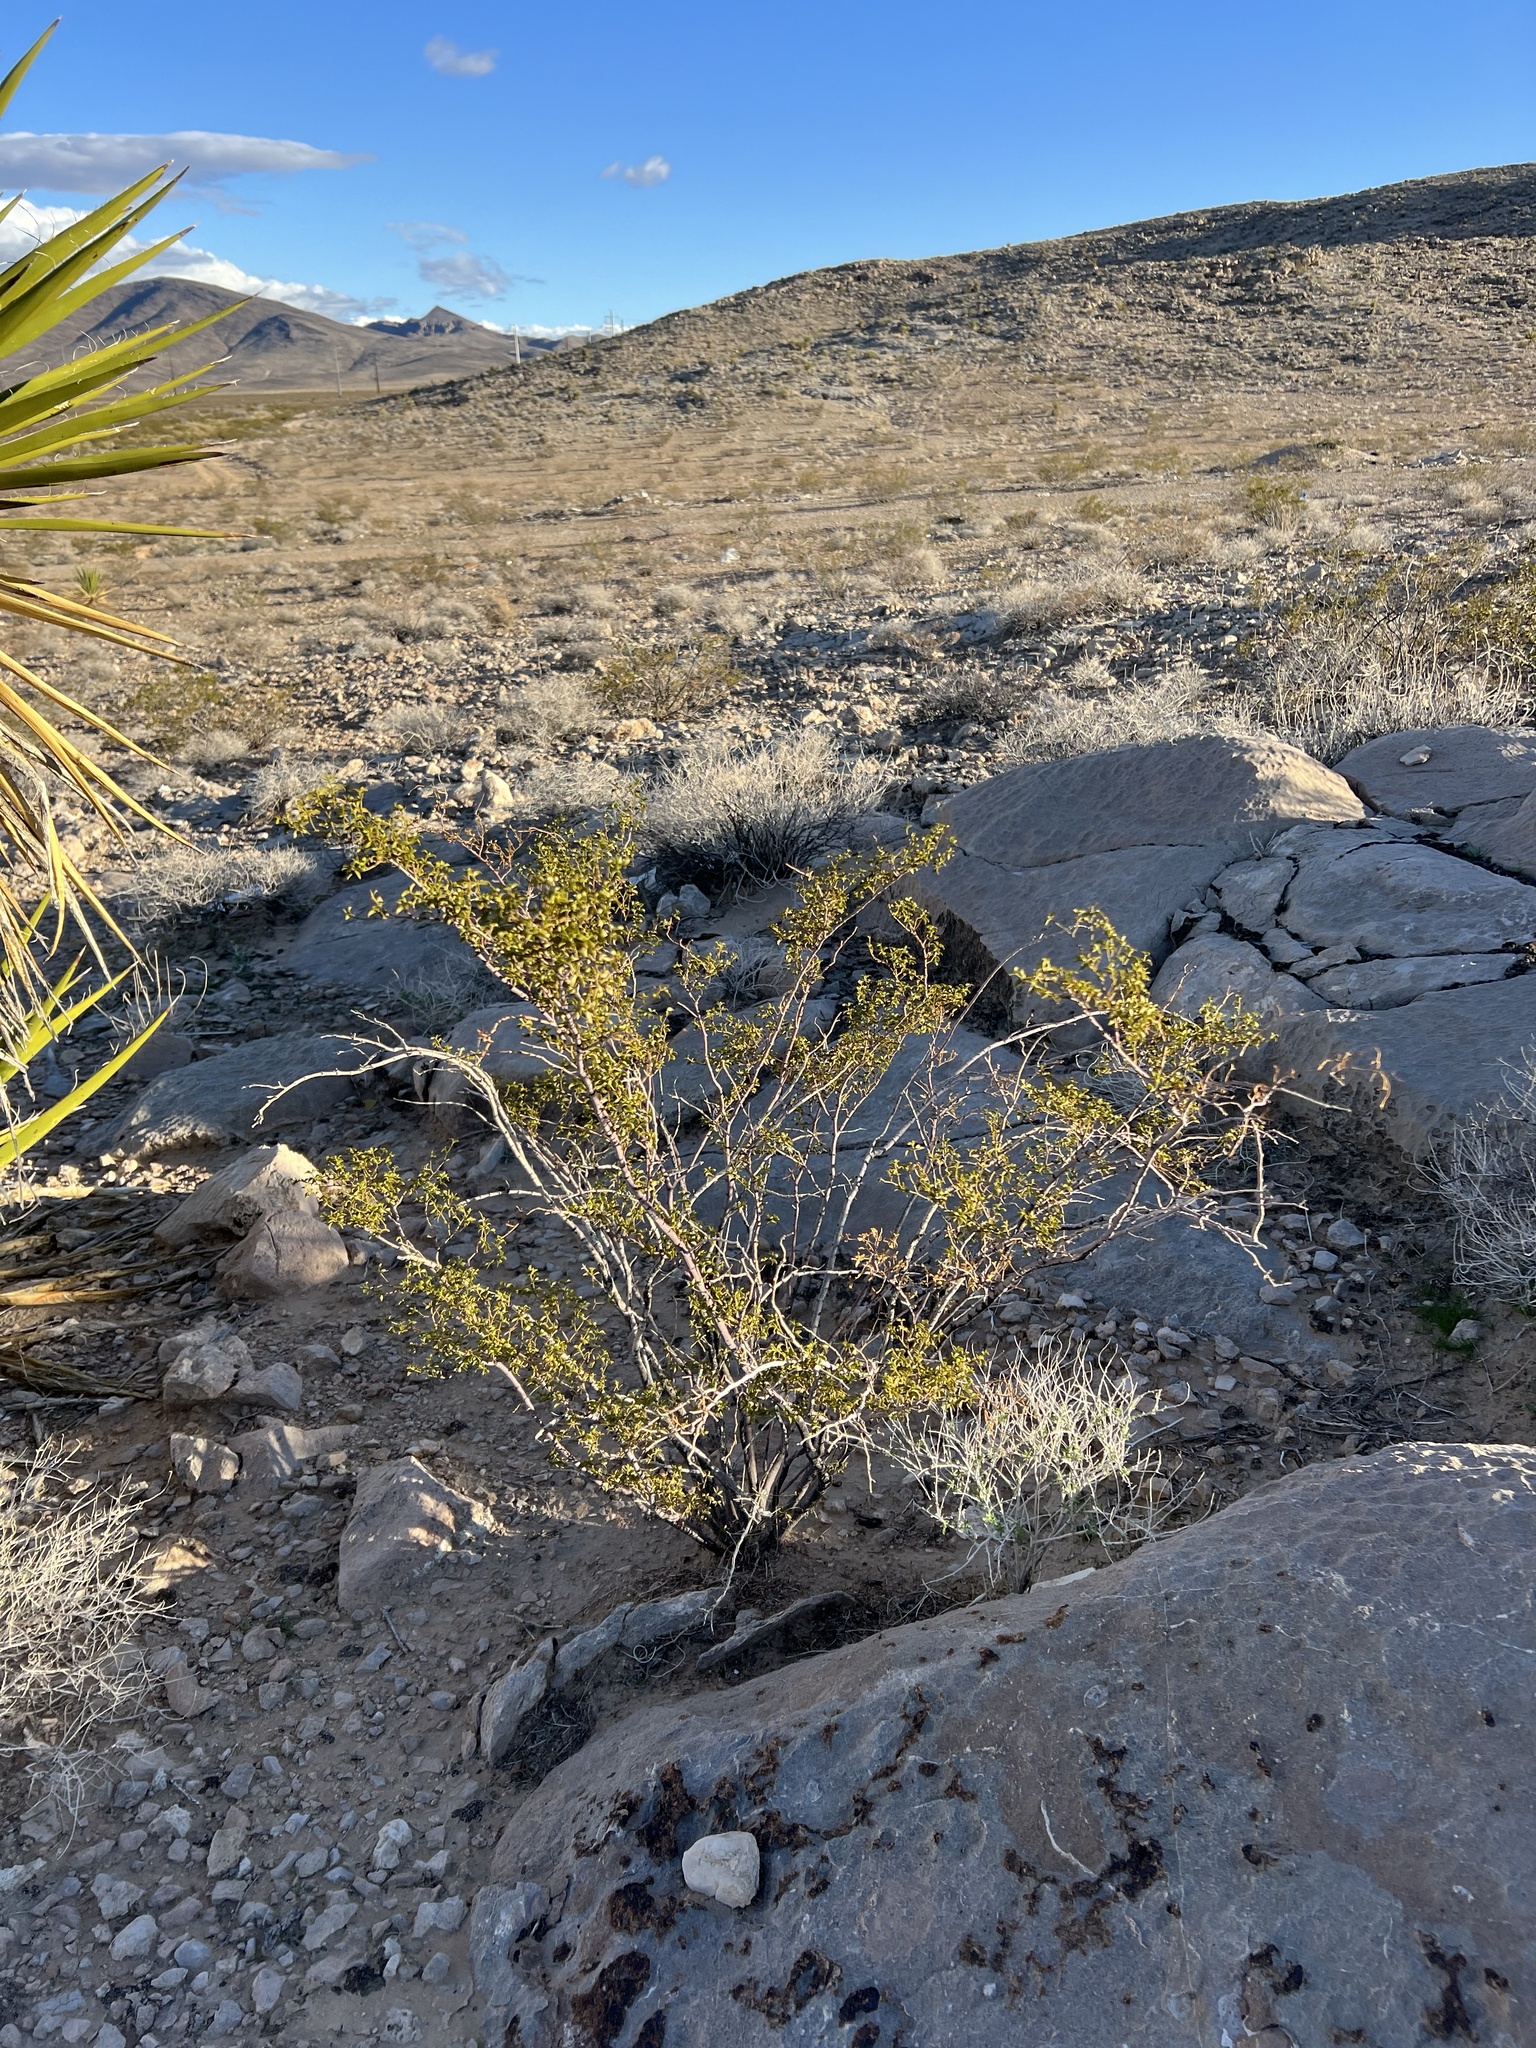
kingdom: Plantae
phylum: Tracheophyta
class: Magnoliopsida
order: Zygophyllales
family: Zygophyllaceae
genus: Larrea
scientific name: Larrea tridentata
